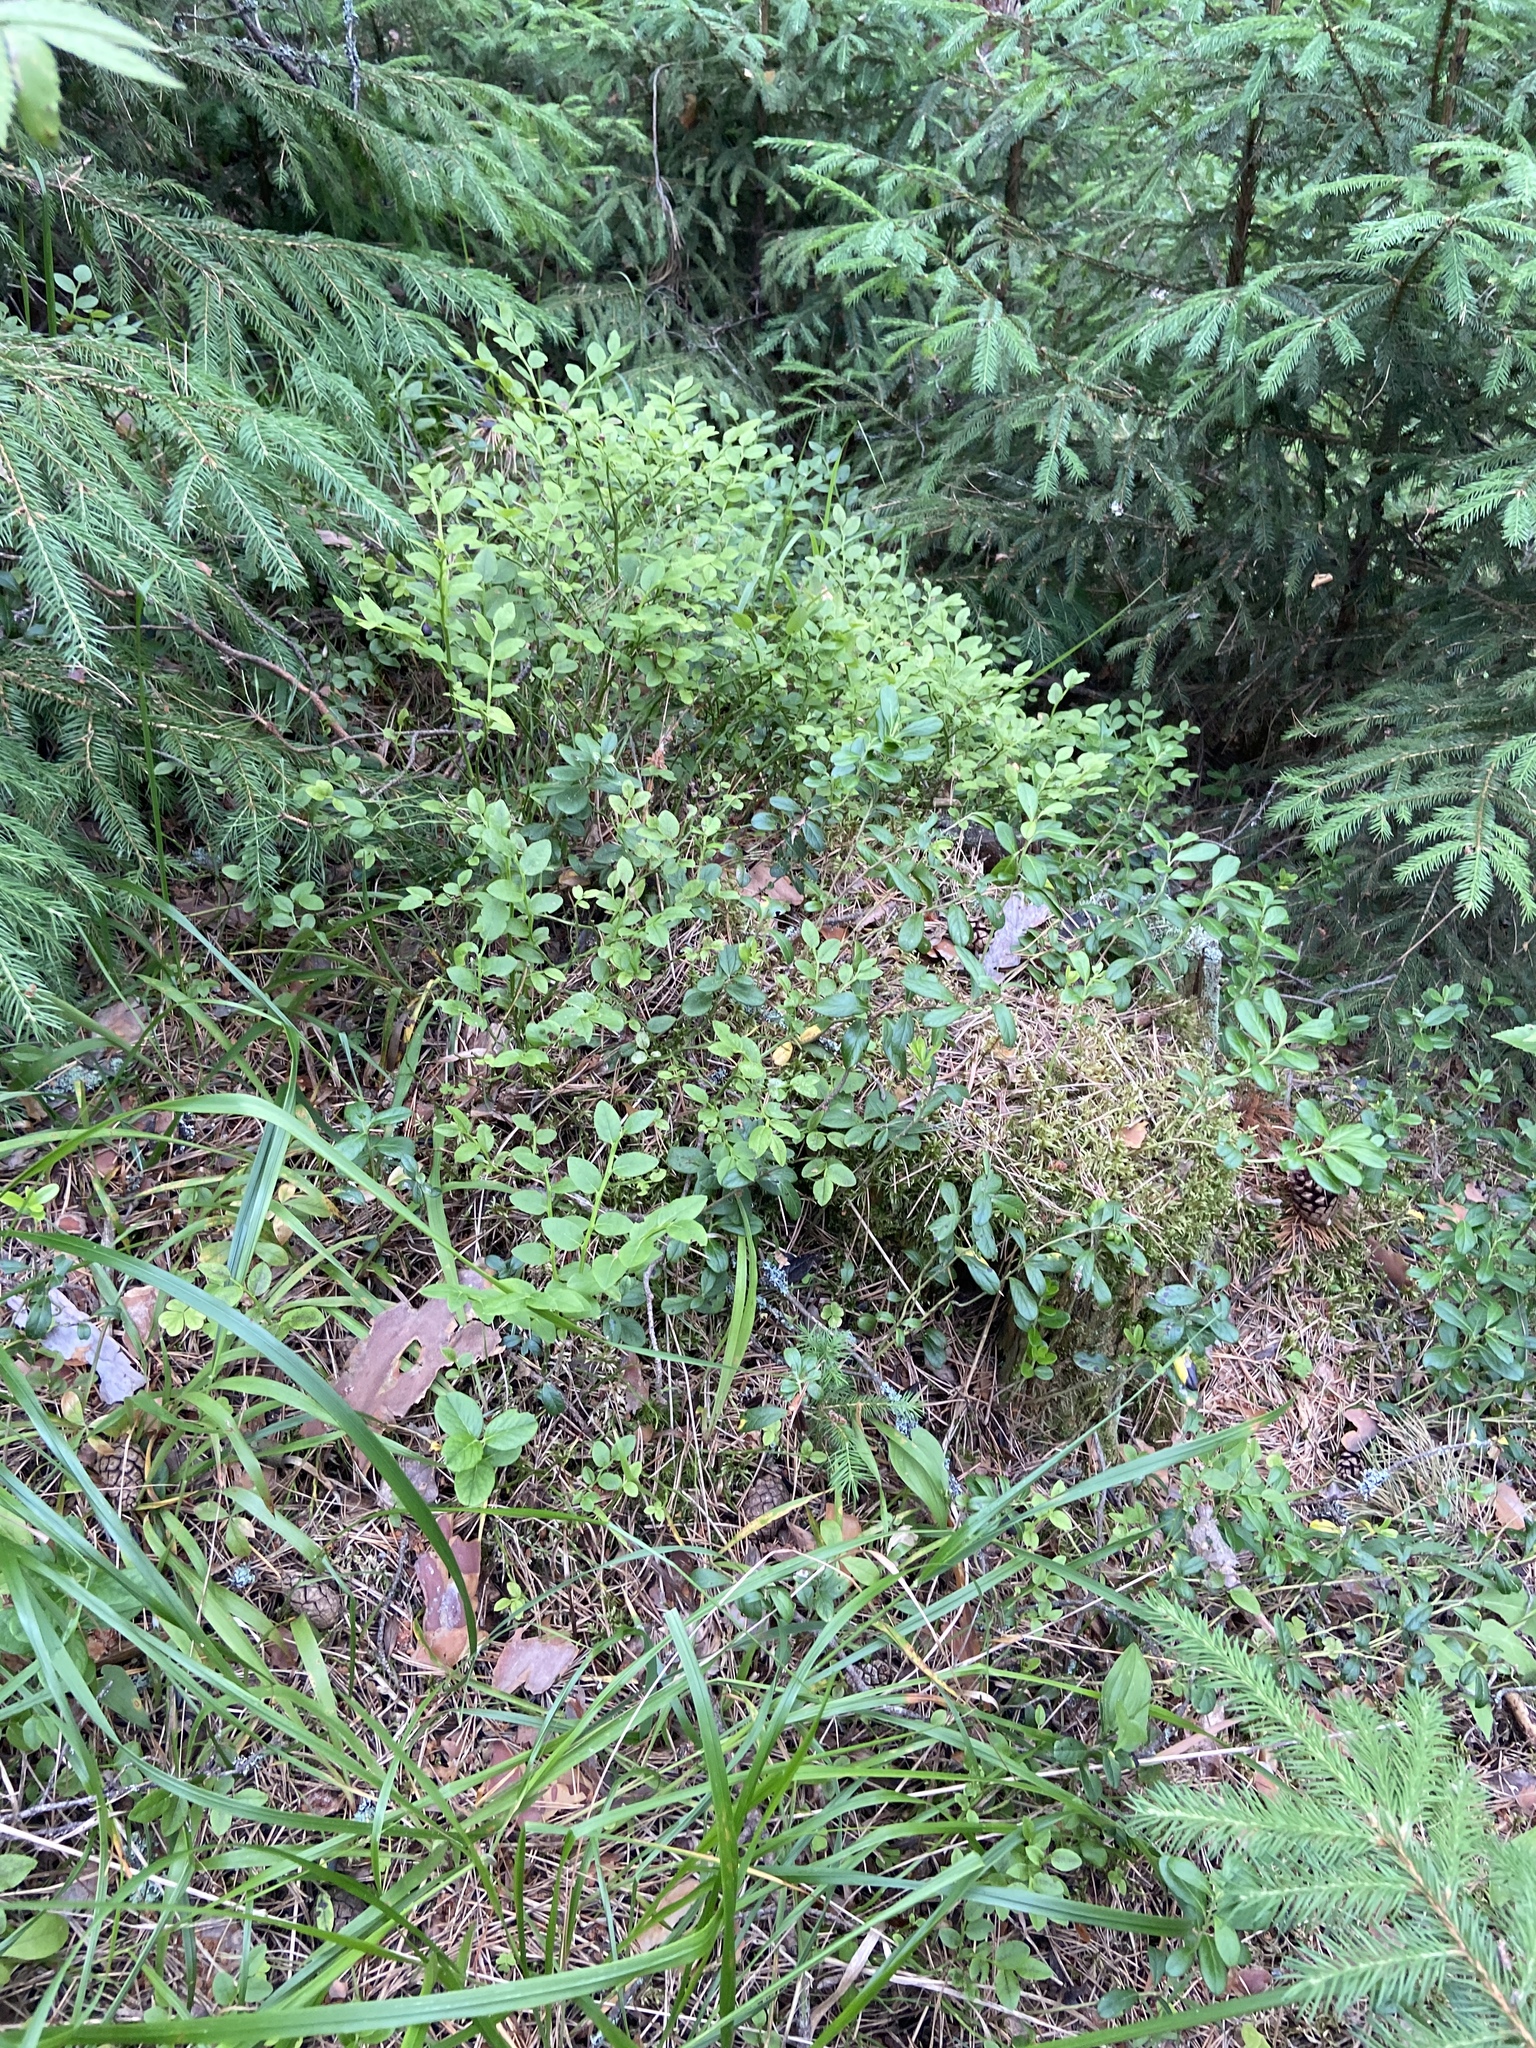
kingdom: Plantae
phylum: Tracheophyta
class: Magnoliopsida
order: Ericales
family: Ericaceae
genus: Vaccinium
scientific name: Vaccinium myrtillus
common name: Bilberry
